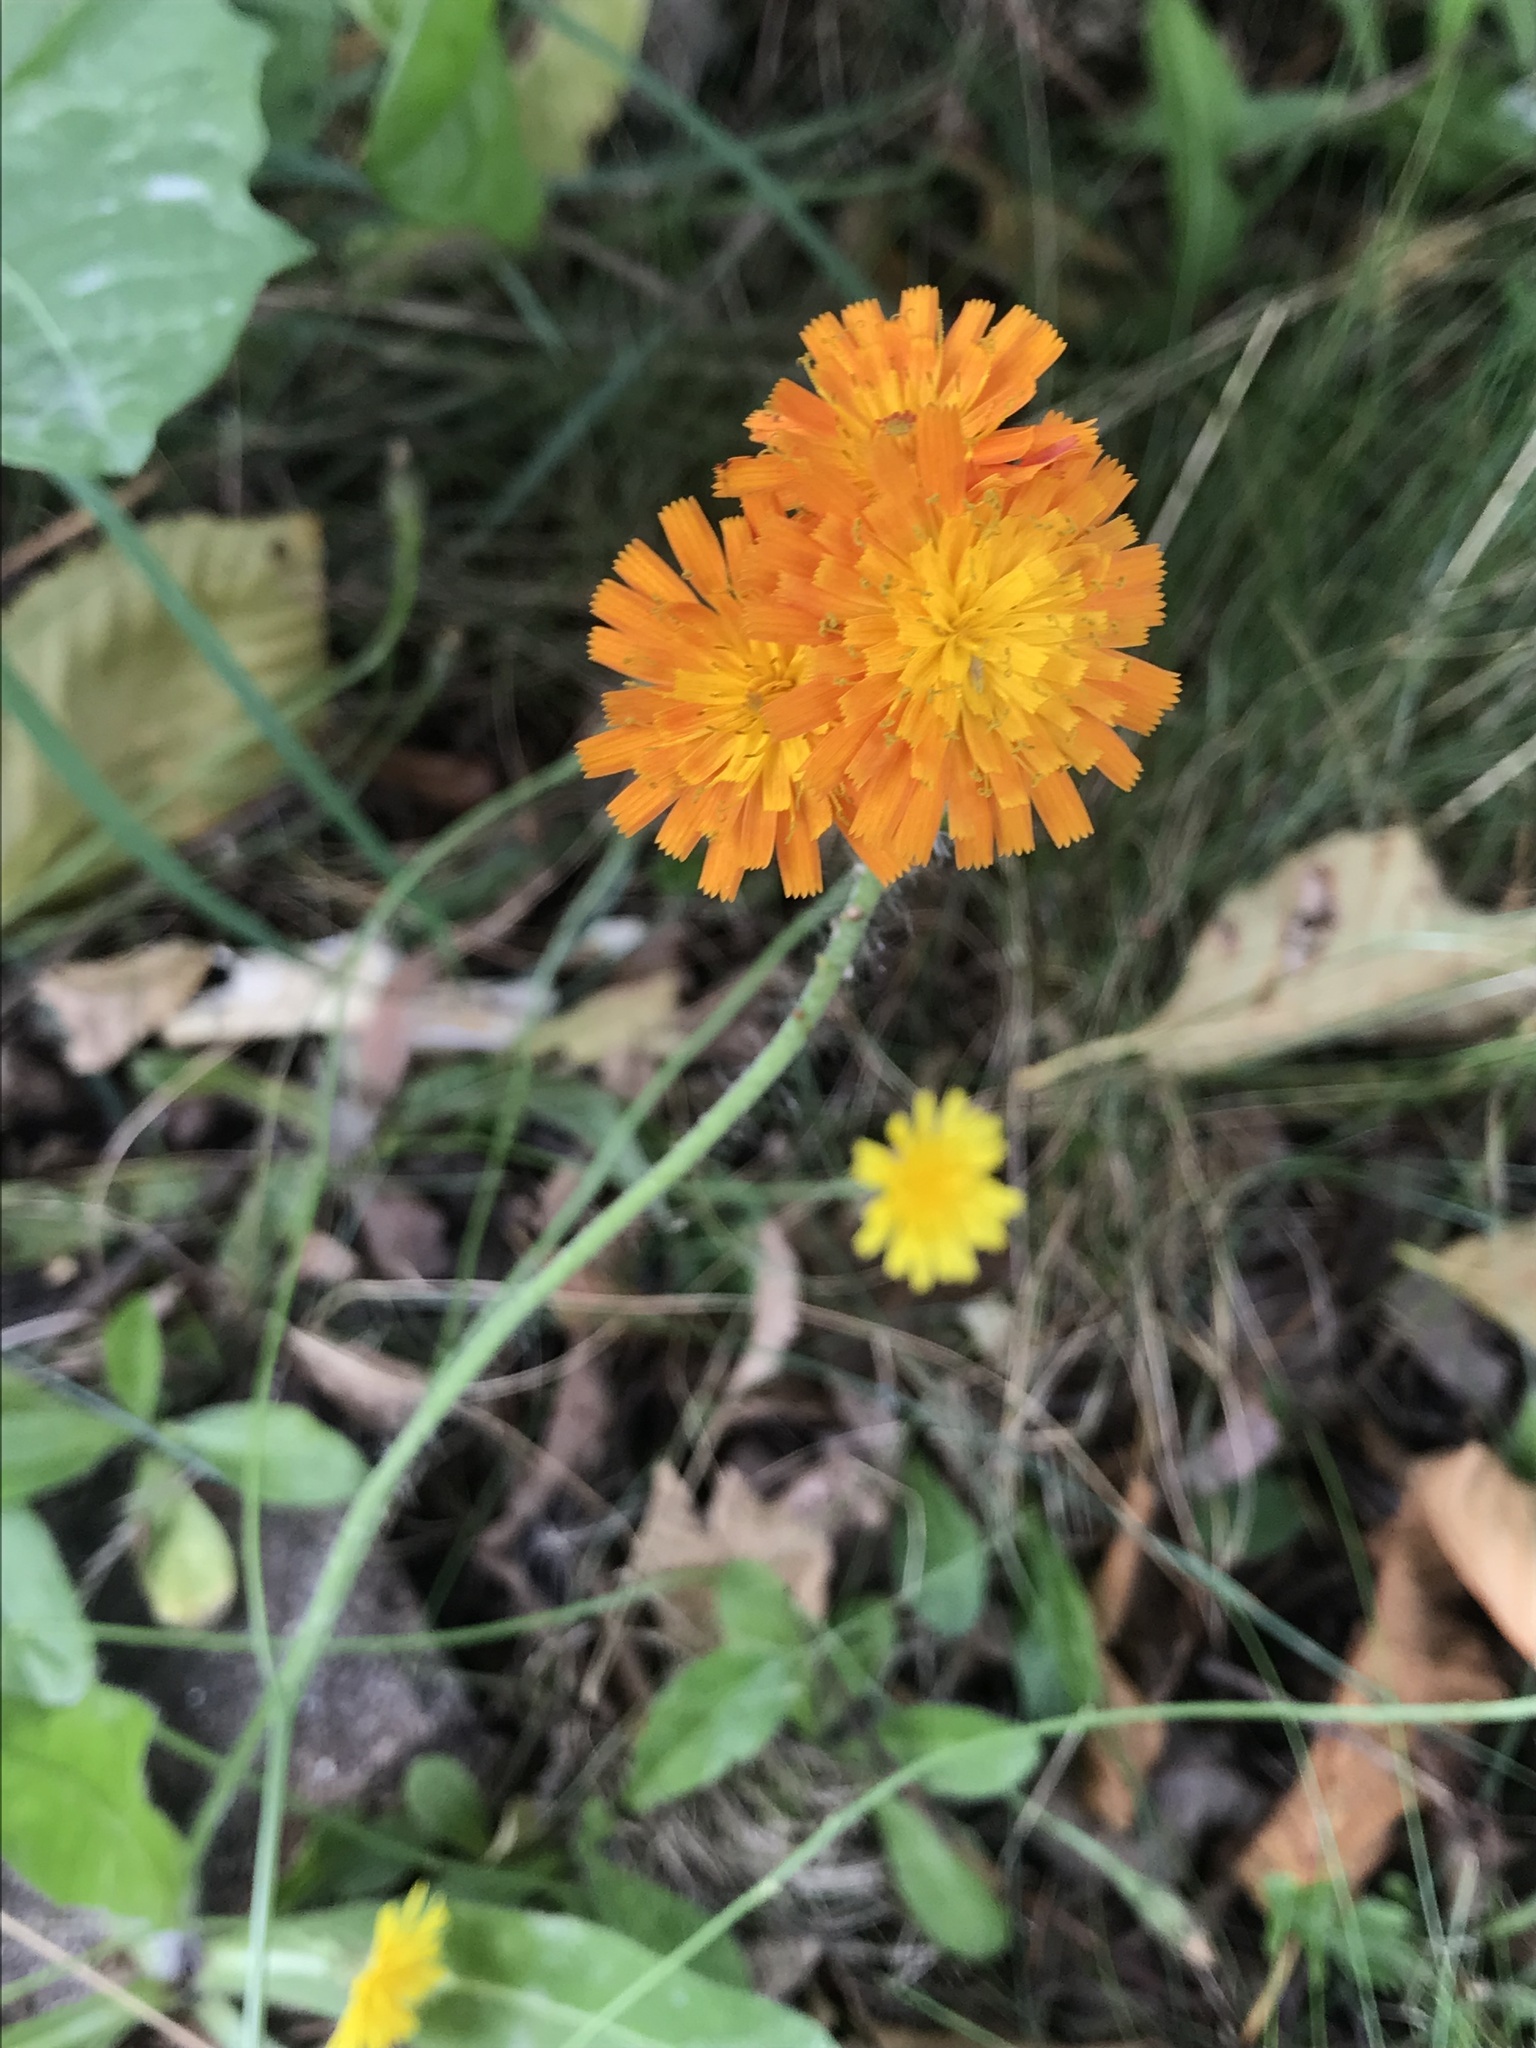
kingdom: Plantae
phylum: Tracheophyta
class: Magnoliopsida
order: Asterales
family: Asteraceae
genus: Pilosella
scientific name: Pilosella aurantiaca
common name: Fox-and-cubs
